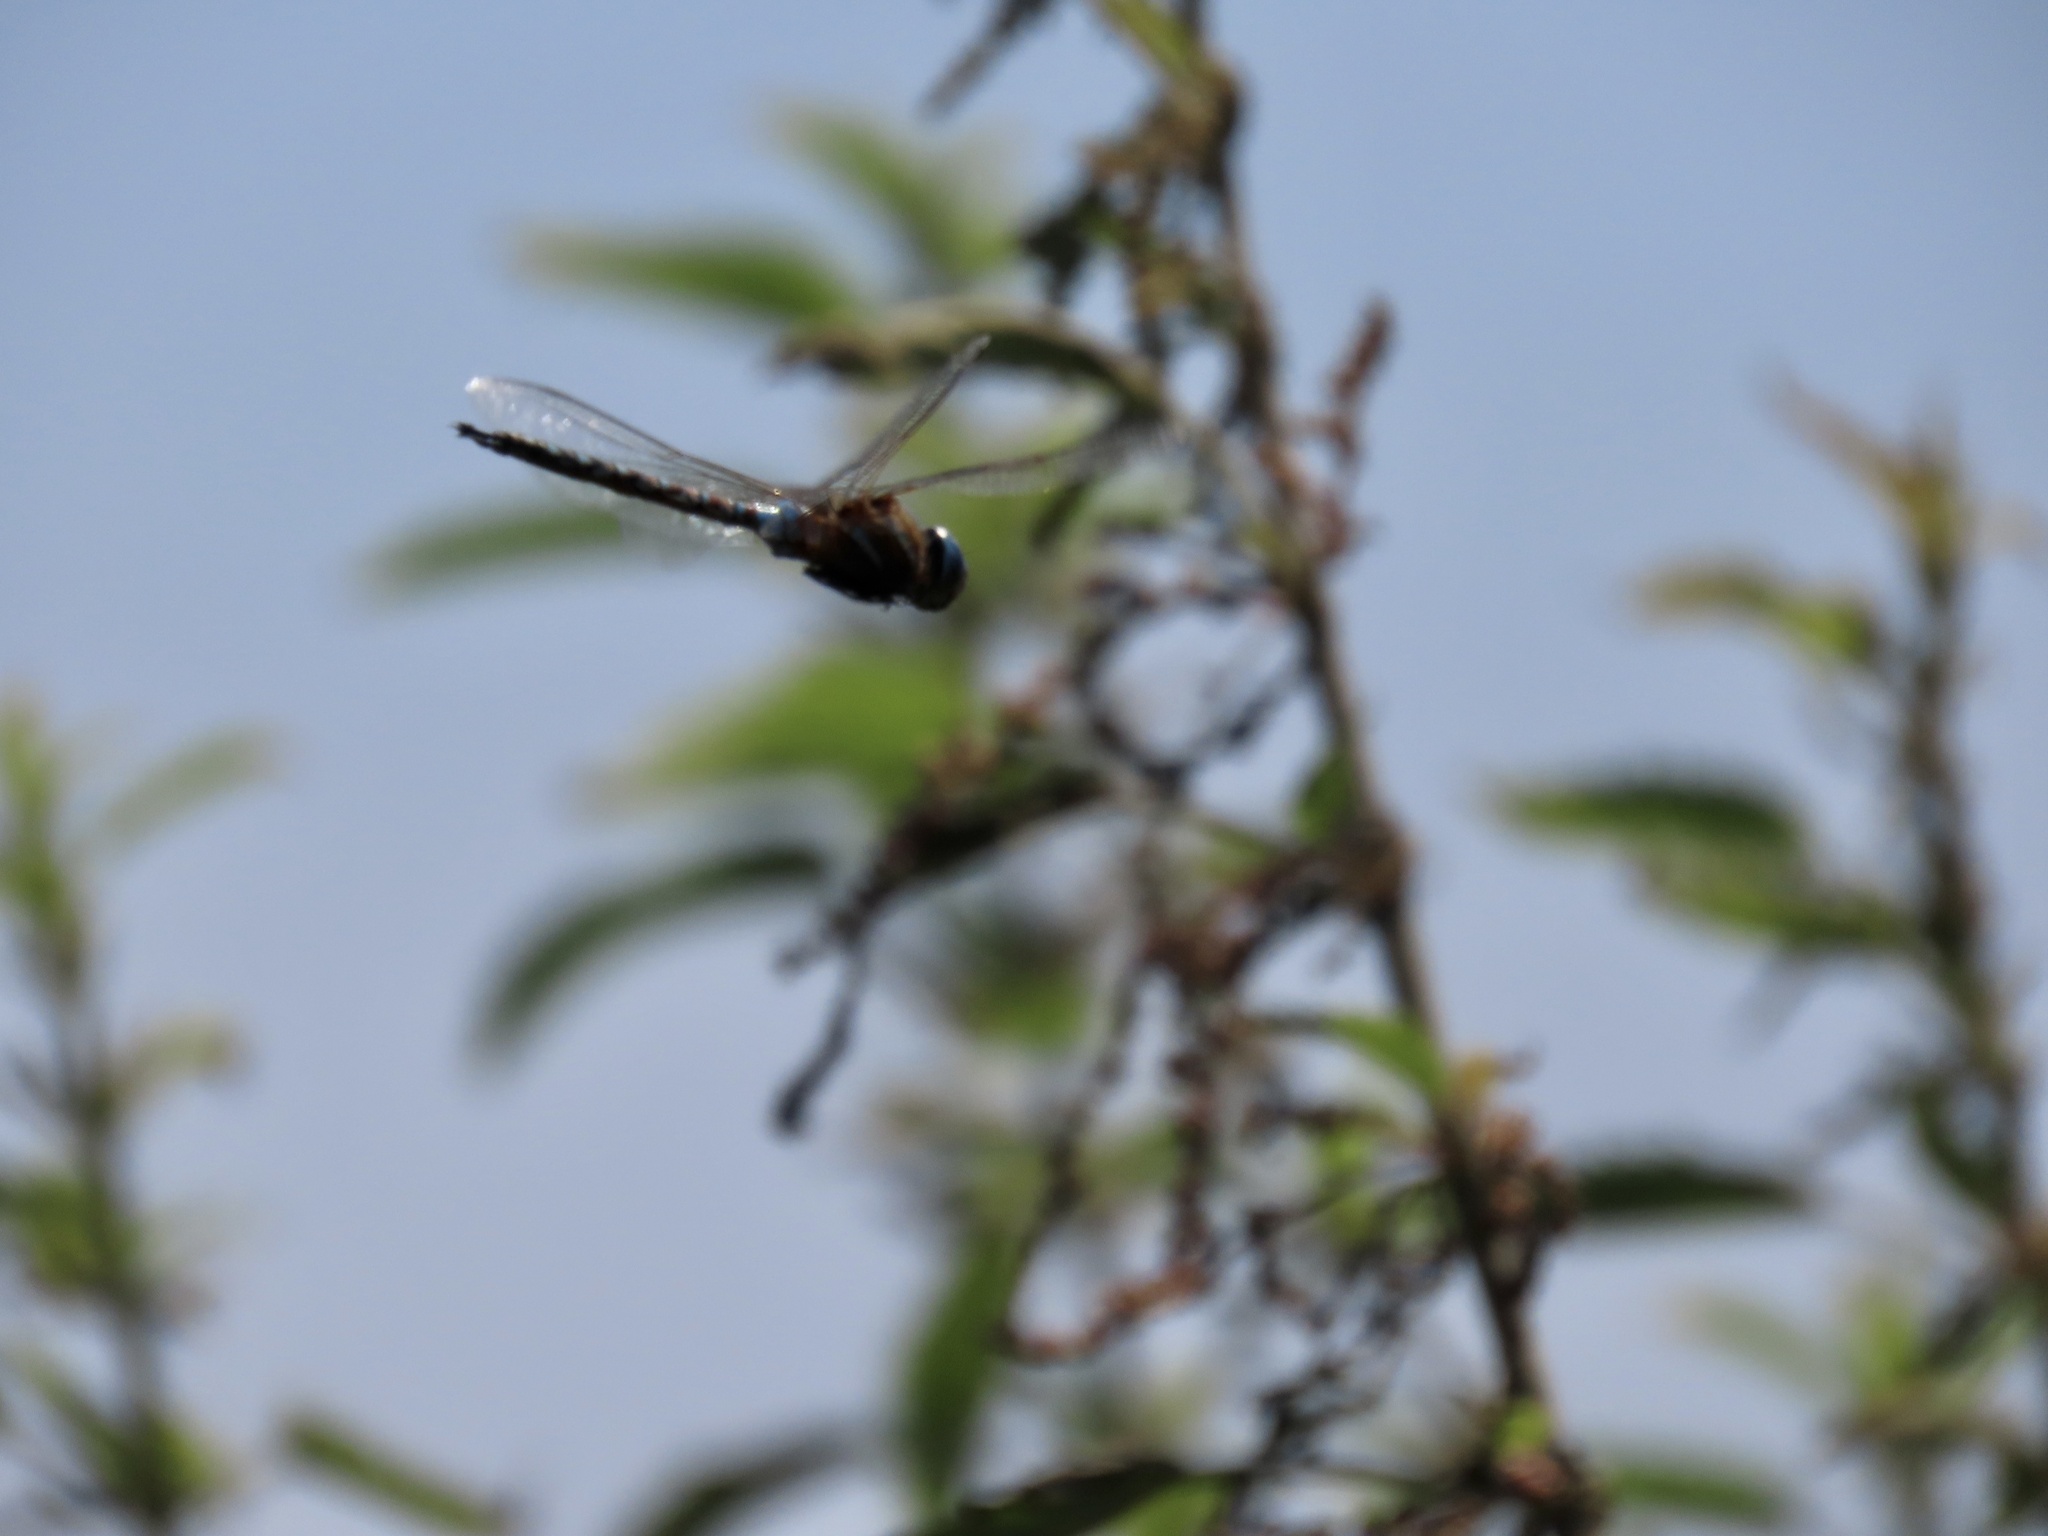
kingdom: Animalia
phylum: Arthropoda
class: Insecta
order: Odonata
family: Aeshnidae
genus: Rhionaeschna
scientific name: Rhionaeschna multicolor
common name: Blue-eyed darner
